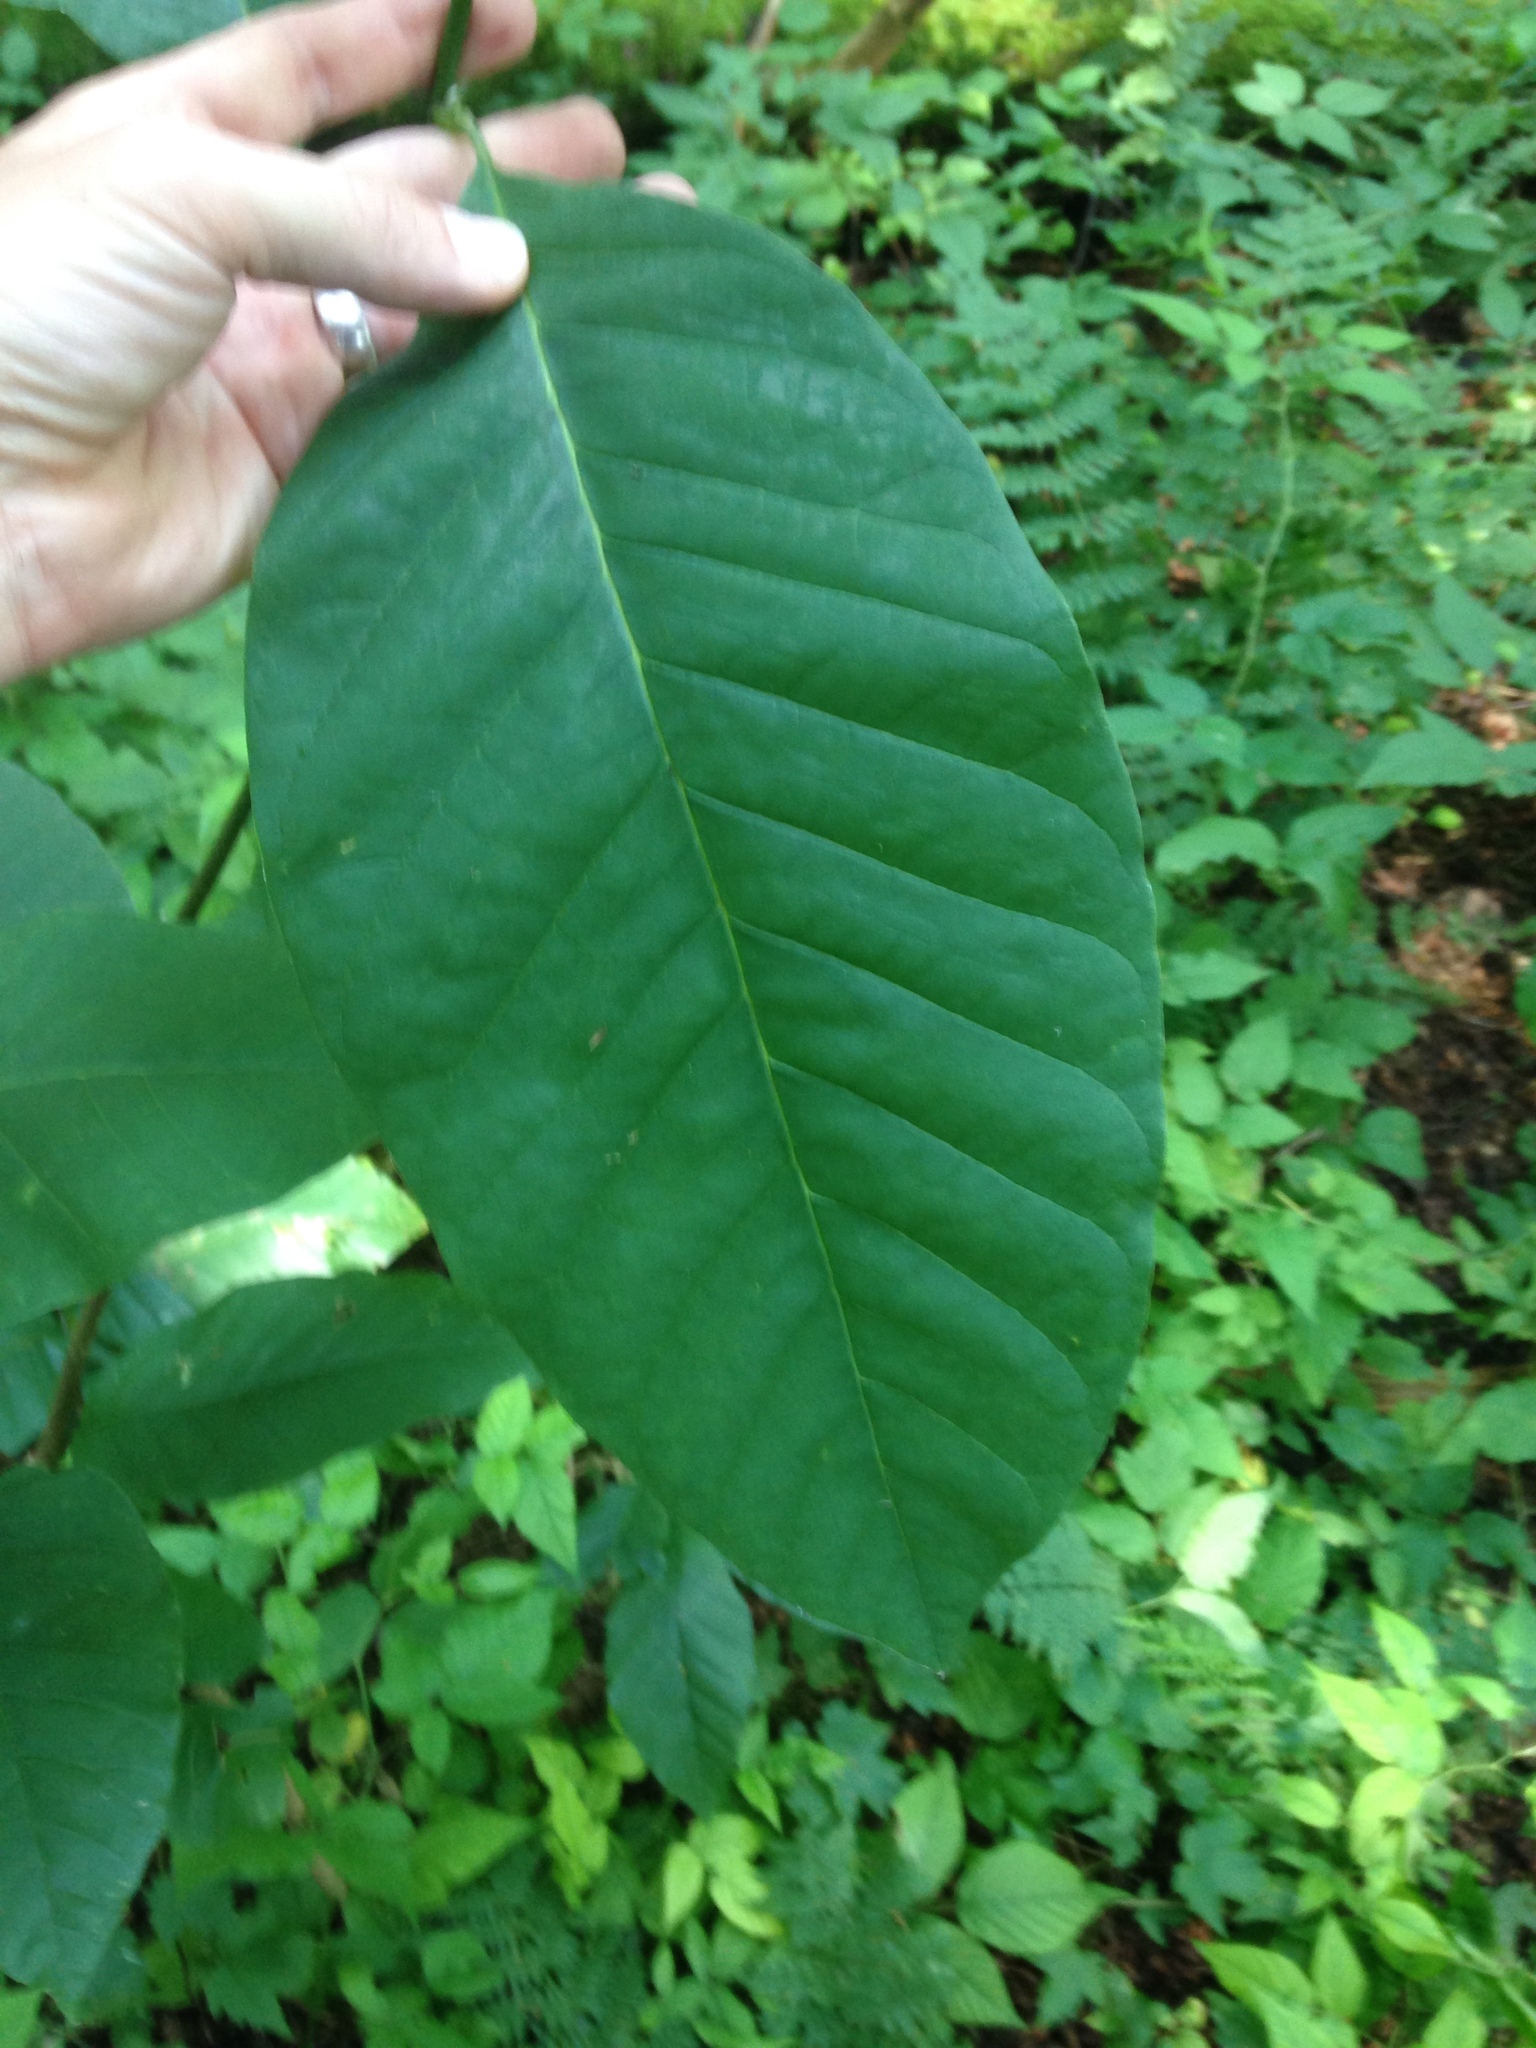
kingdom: Plantae
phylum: Tracheophyta
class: Magnoliopsida
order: Magnoliales
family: Magnoliaceae
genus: Magnolia
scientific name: Magnolia acuminata
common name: Cucumber magnolia
